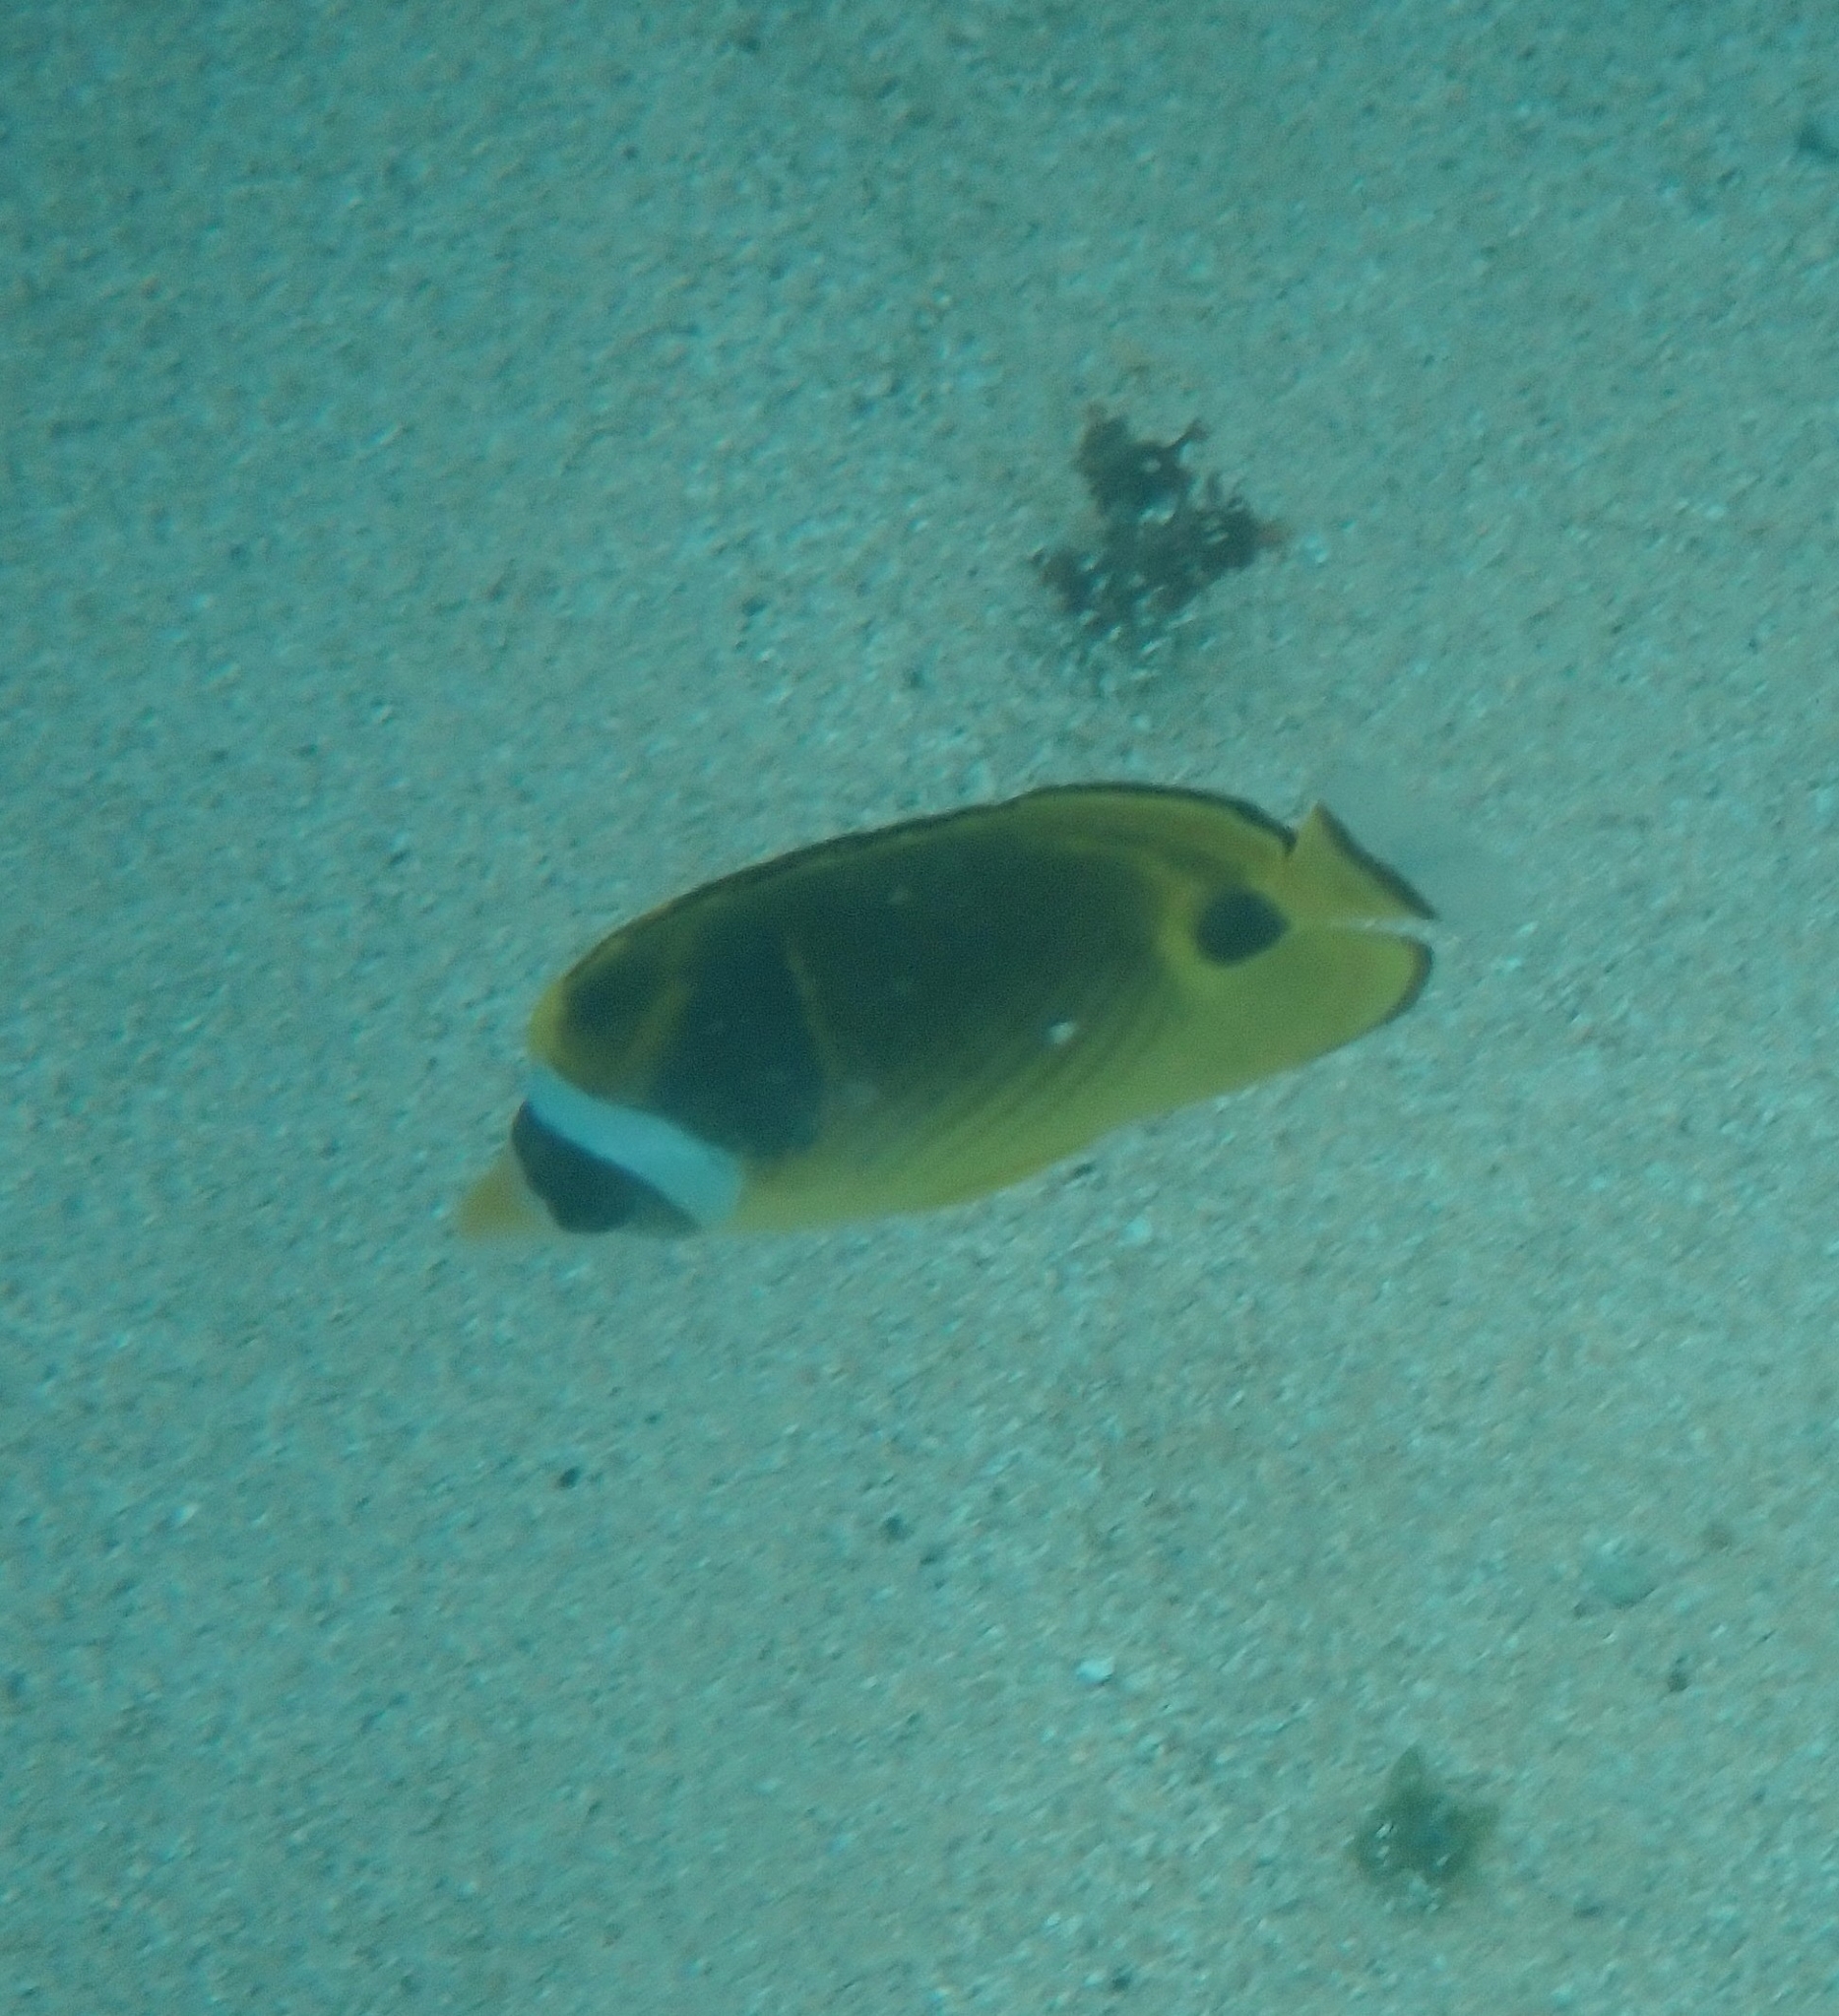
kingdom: Animalia
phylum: Chordata
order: Perciformes
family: Chaetodontidae
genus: Chaetodon
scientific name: Chaetodon lunula
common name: Raccoon butterflyfish
